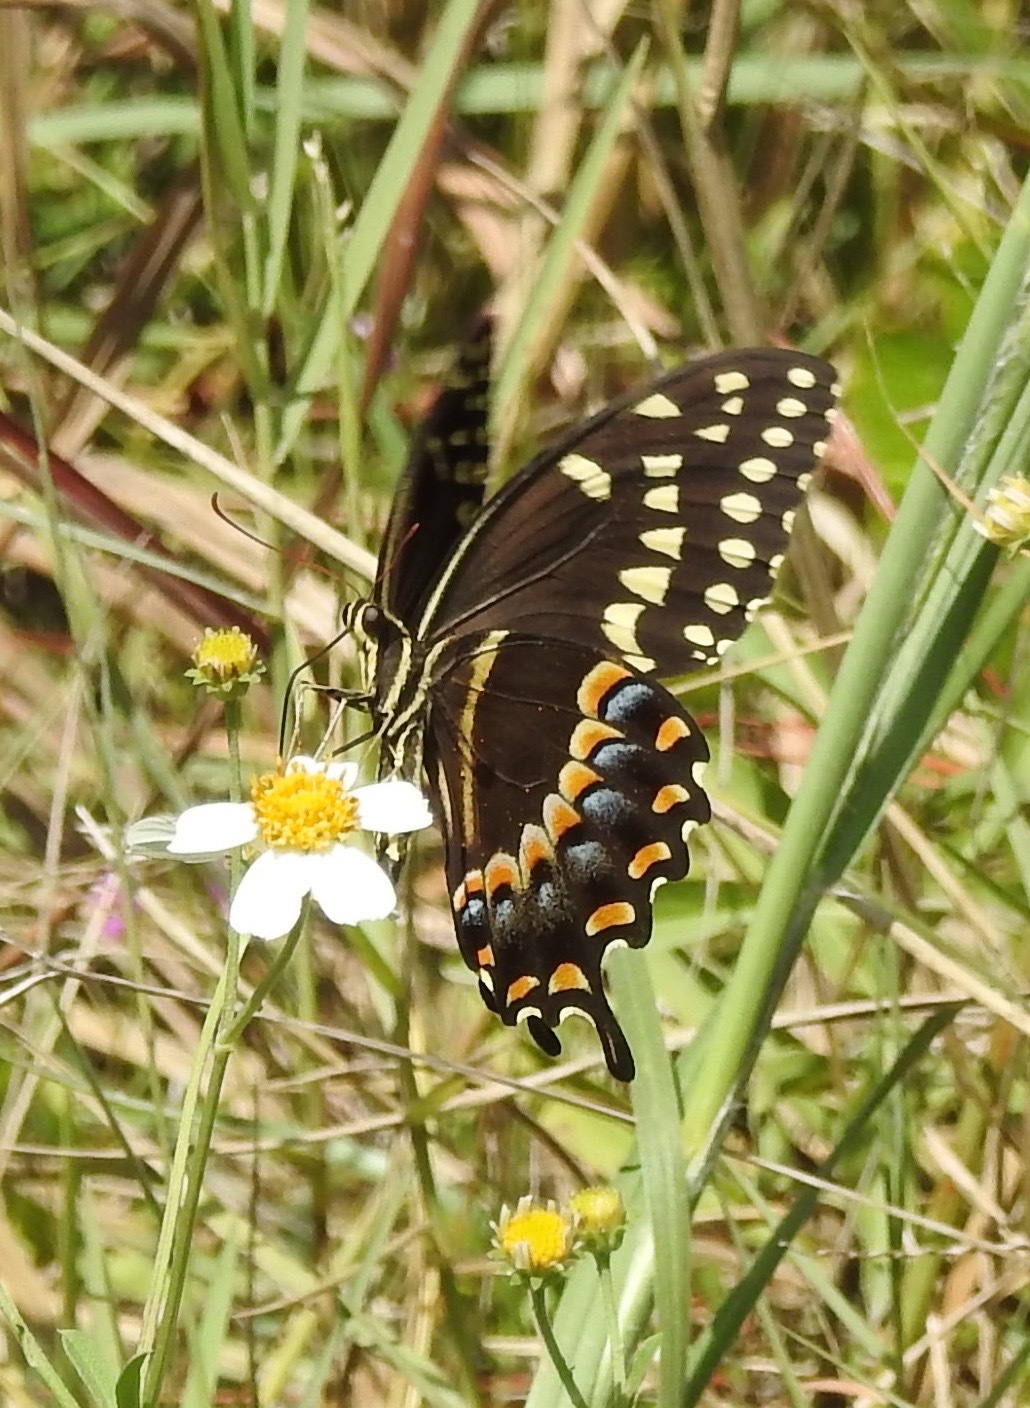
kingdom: Animalia
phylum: Arthropoda
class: Insecta
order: Lepidoptera
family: Papilionidae
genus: Papilio
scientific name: Papilio palamedes
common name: Palamedes swallowtail
